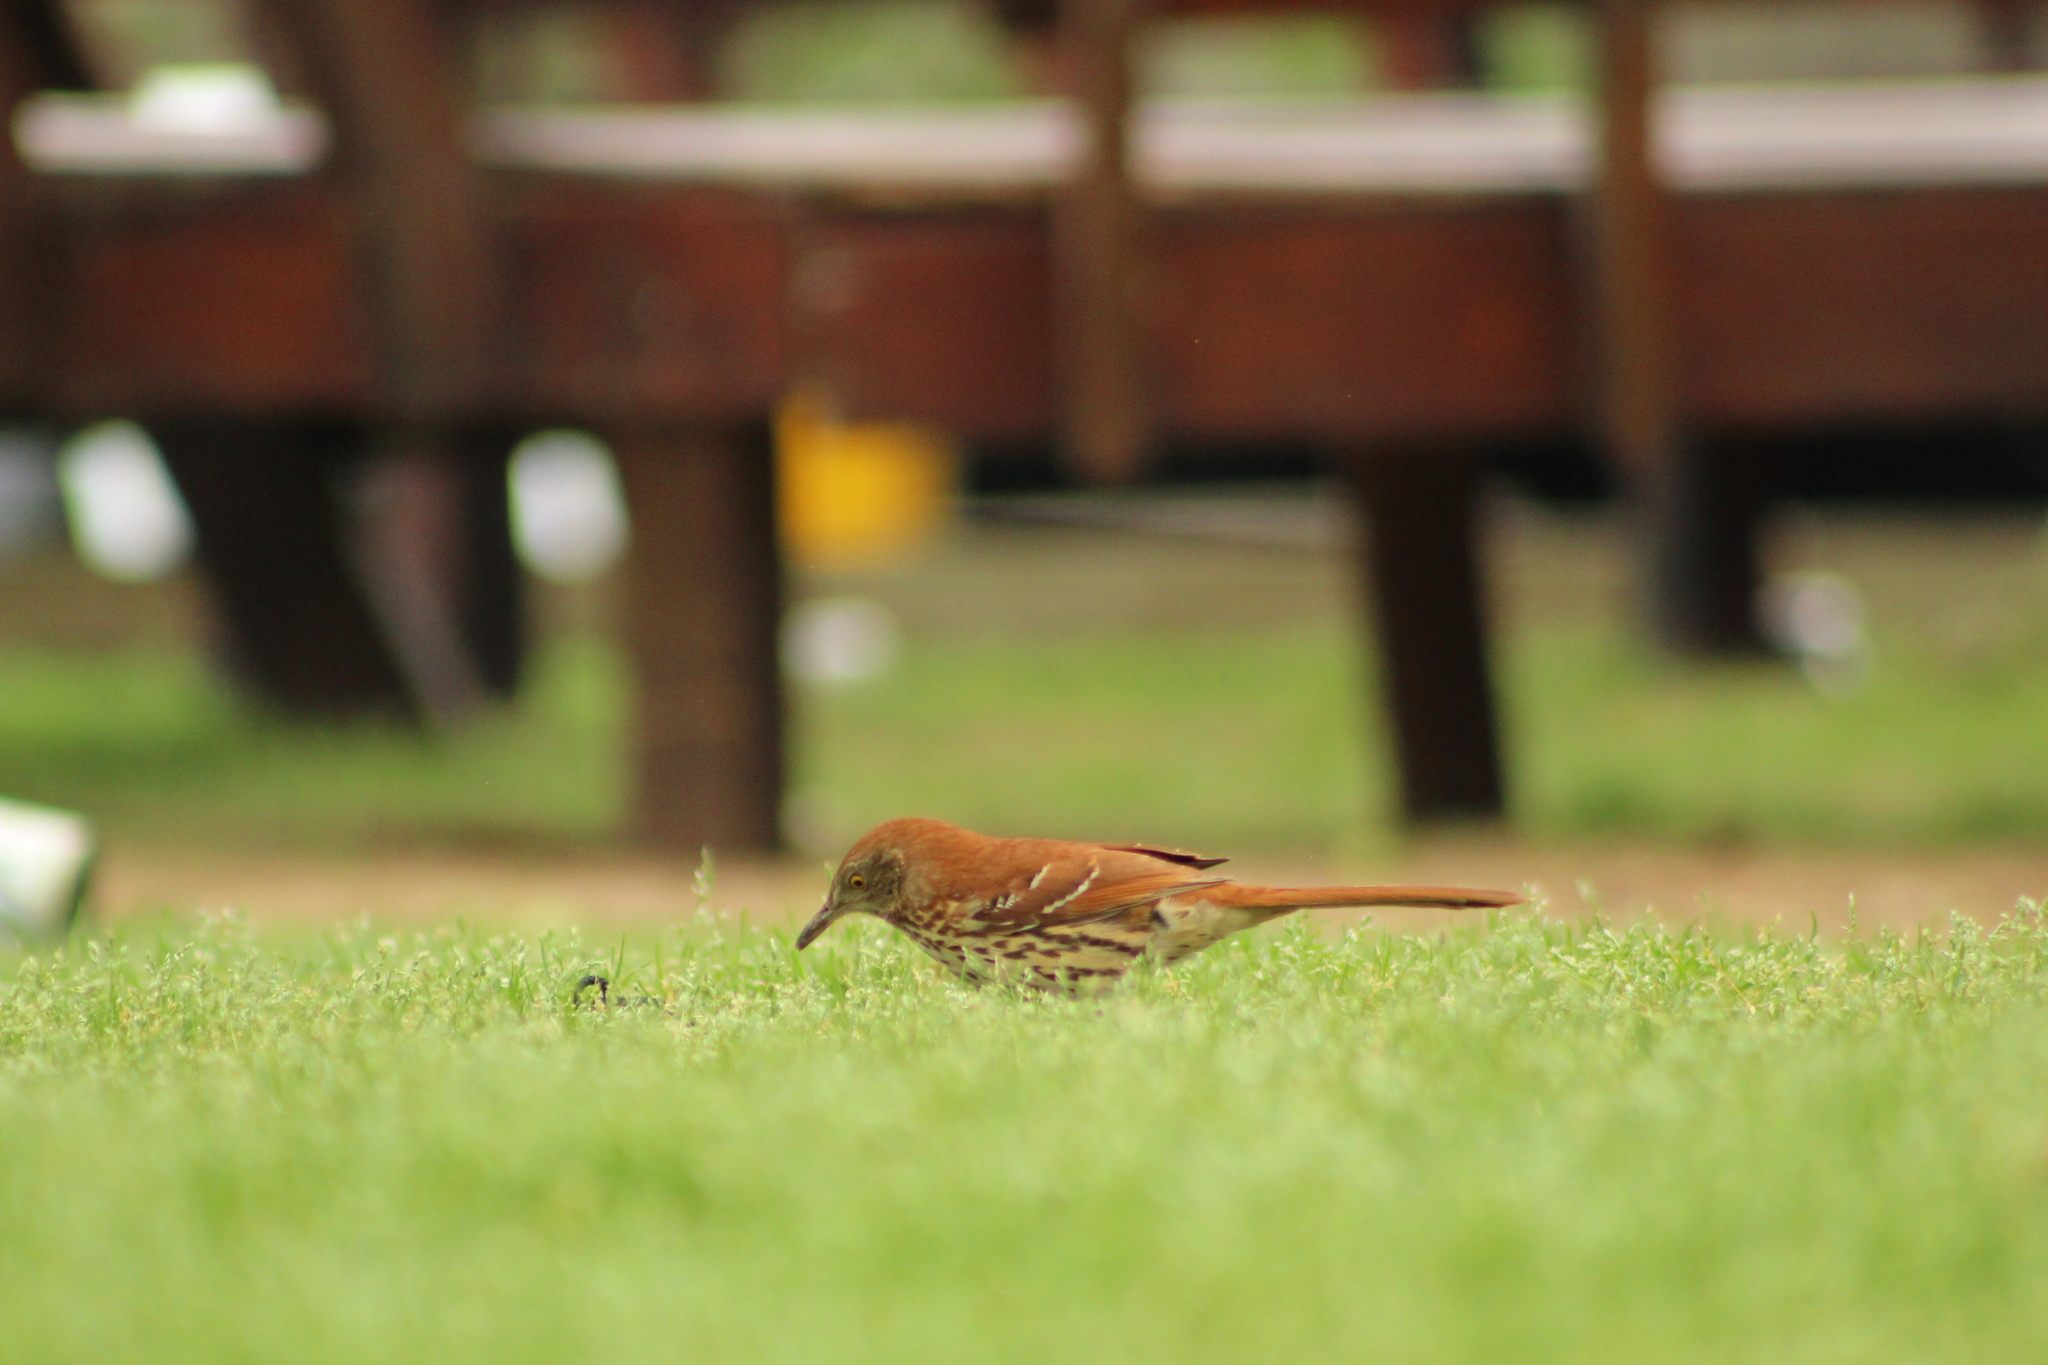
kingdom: Animalia
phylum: Chordata
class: Aves
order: Passeriformes
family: Mimidae
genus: Toxostoma
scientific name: Toxostoma rufum
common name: Brown thrasher
